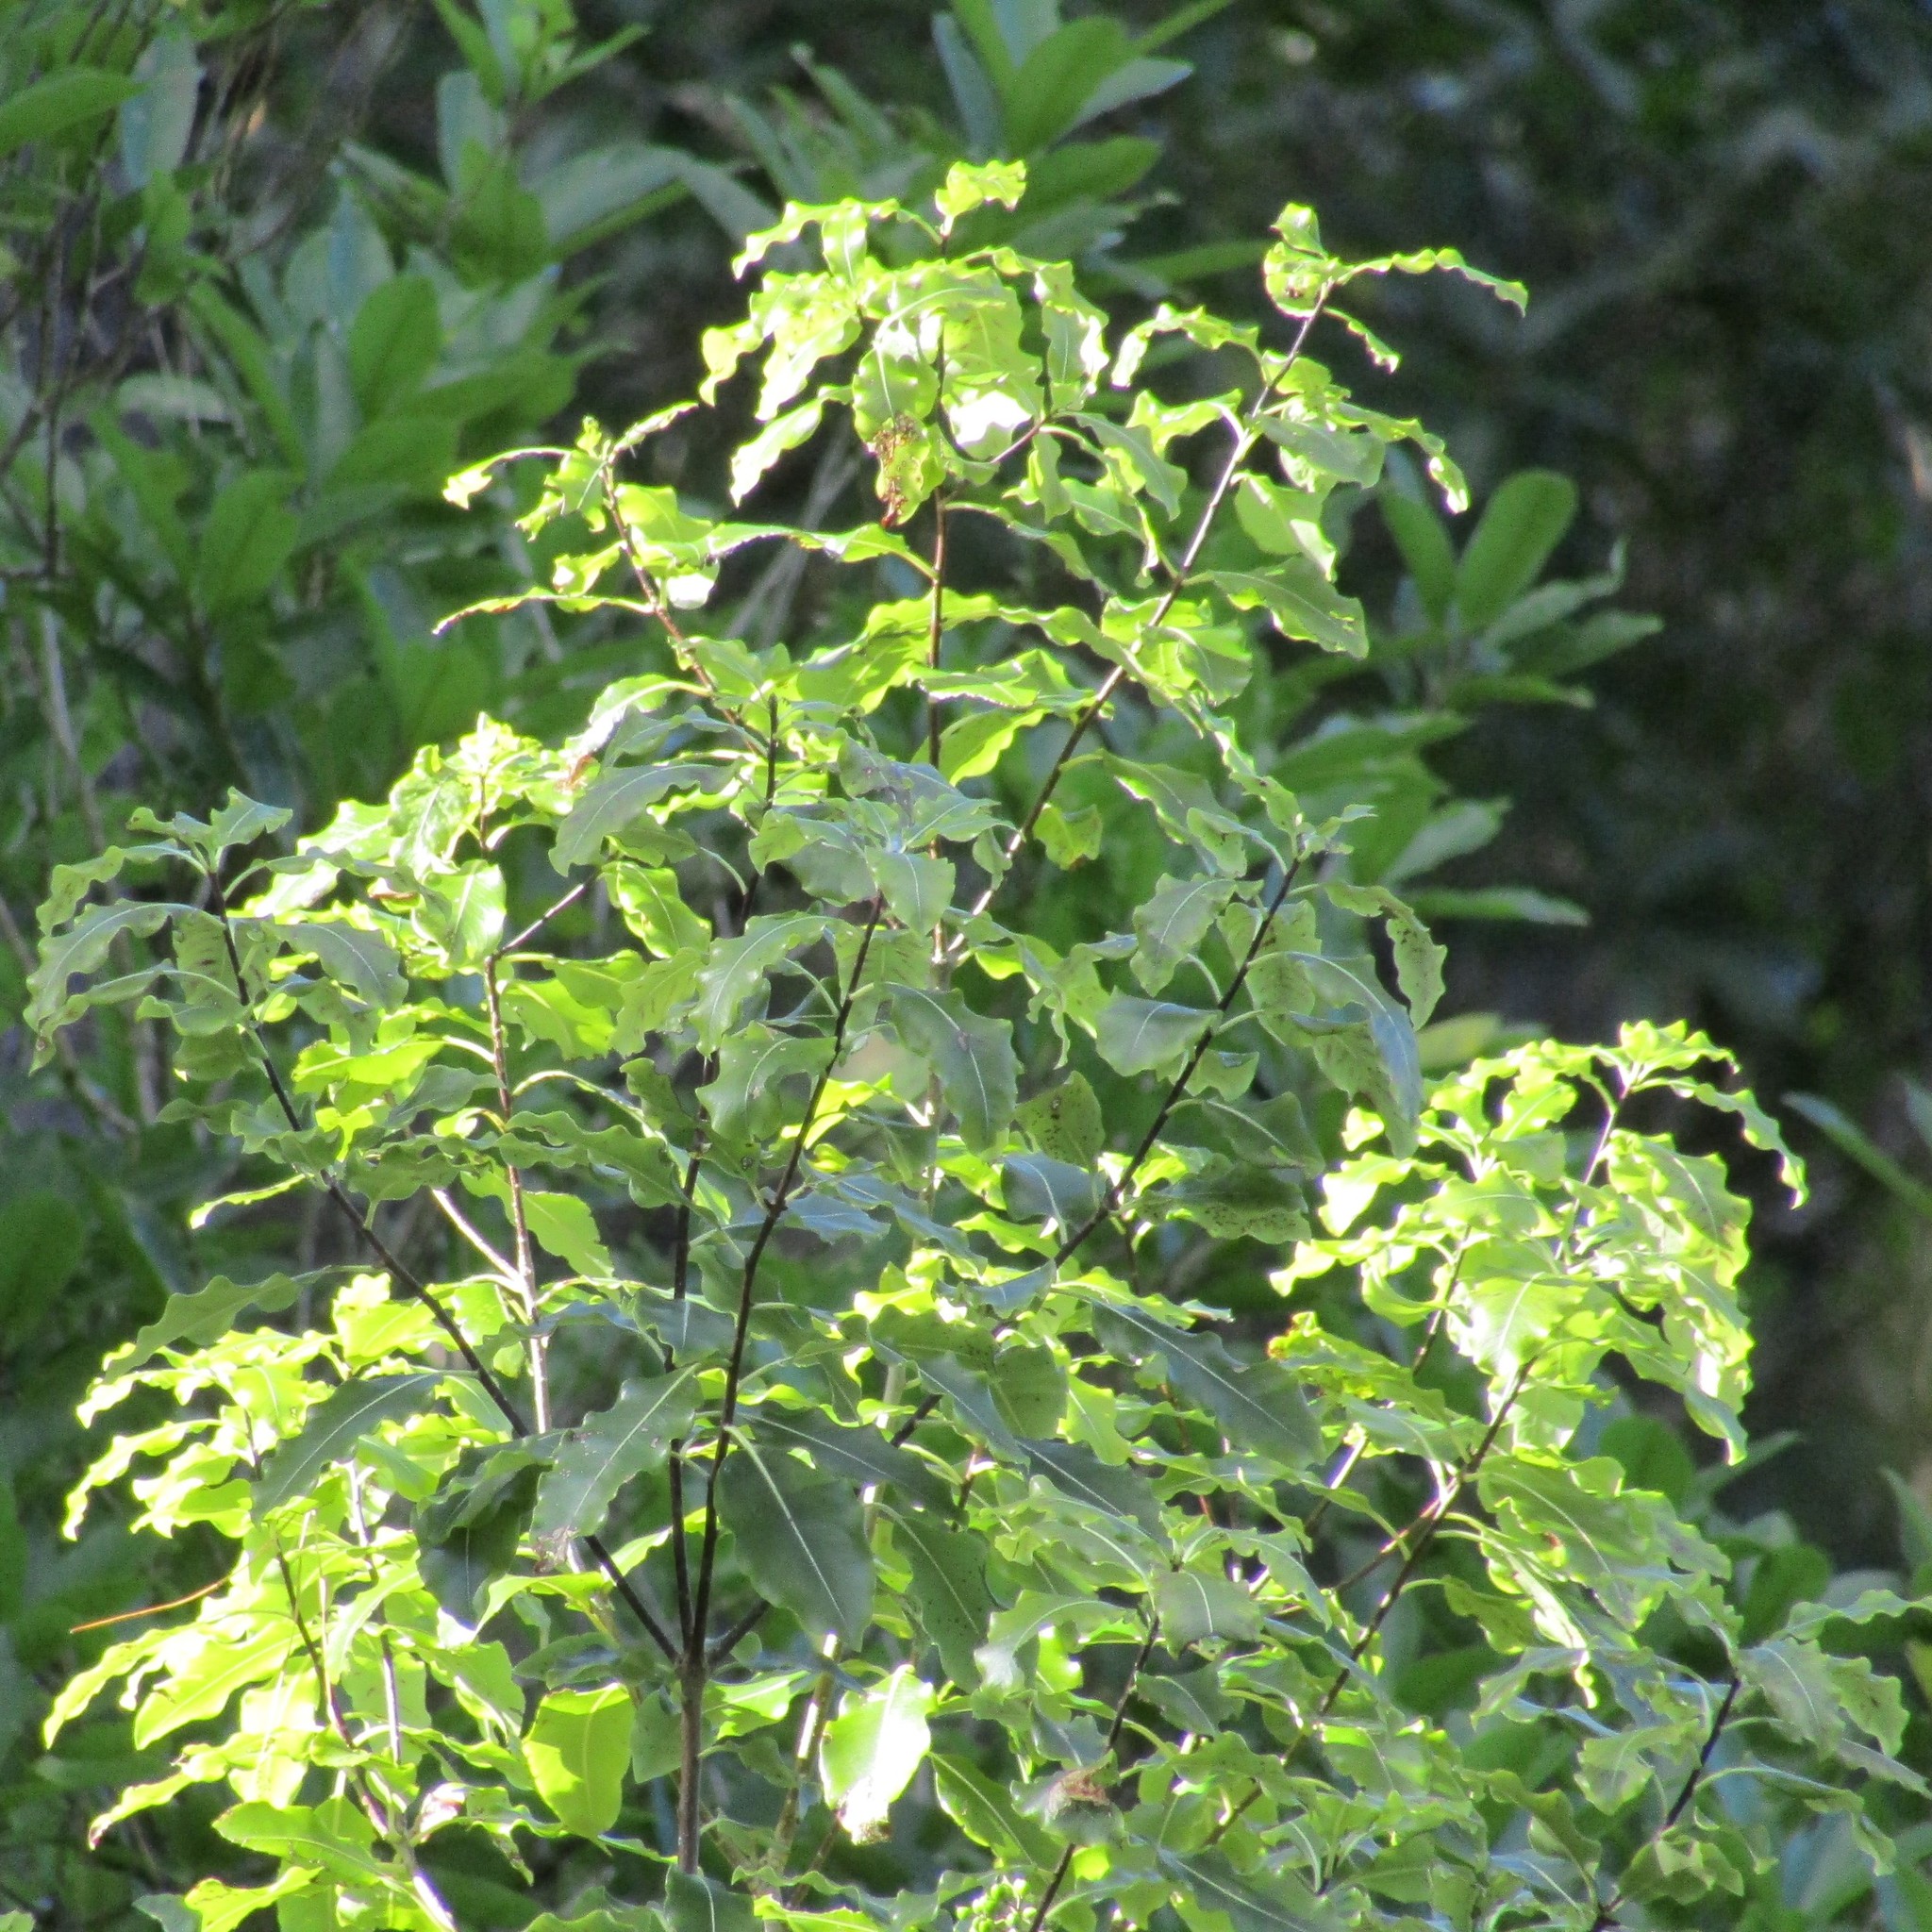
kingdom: Plantae
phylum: Tracheophyta
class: Magnoliopsida
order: Apiales
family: Pittosporaceae
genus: Pittosporum
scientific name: Pittosporum eugenioides
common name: Lemonwood
